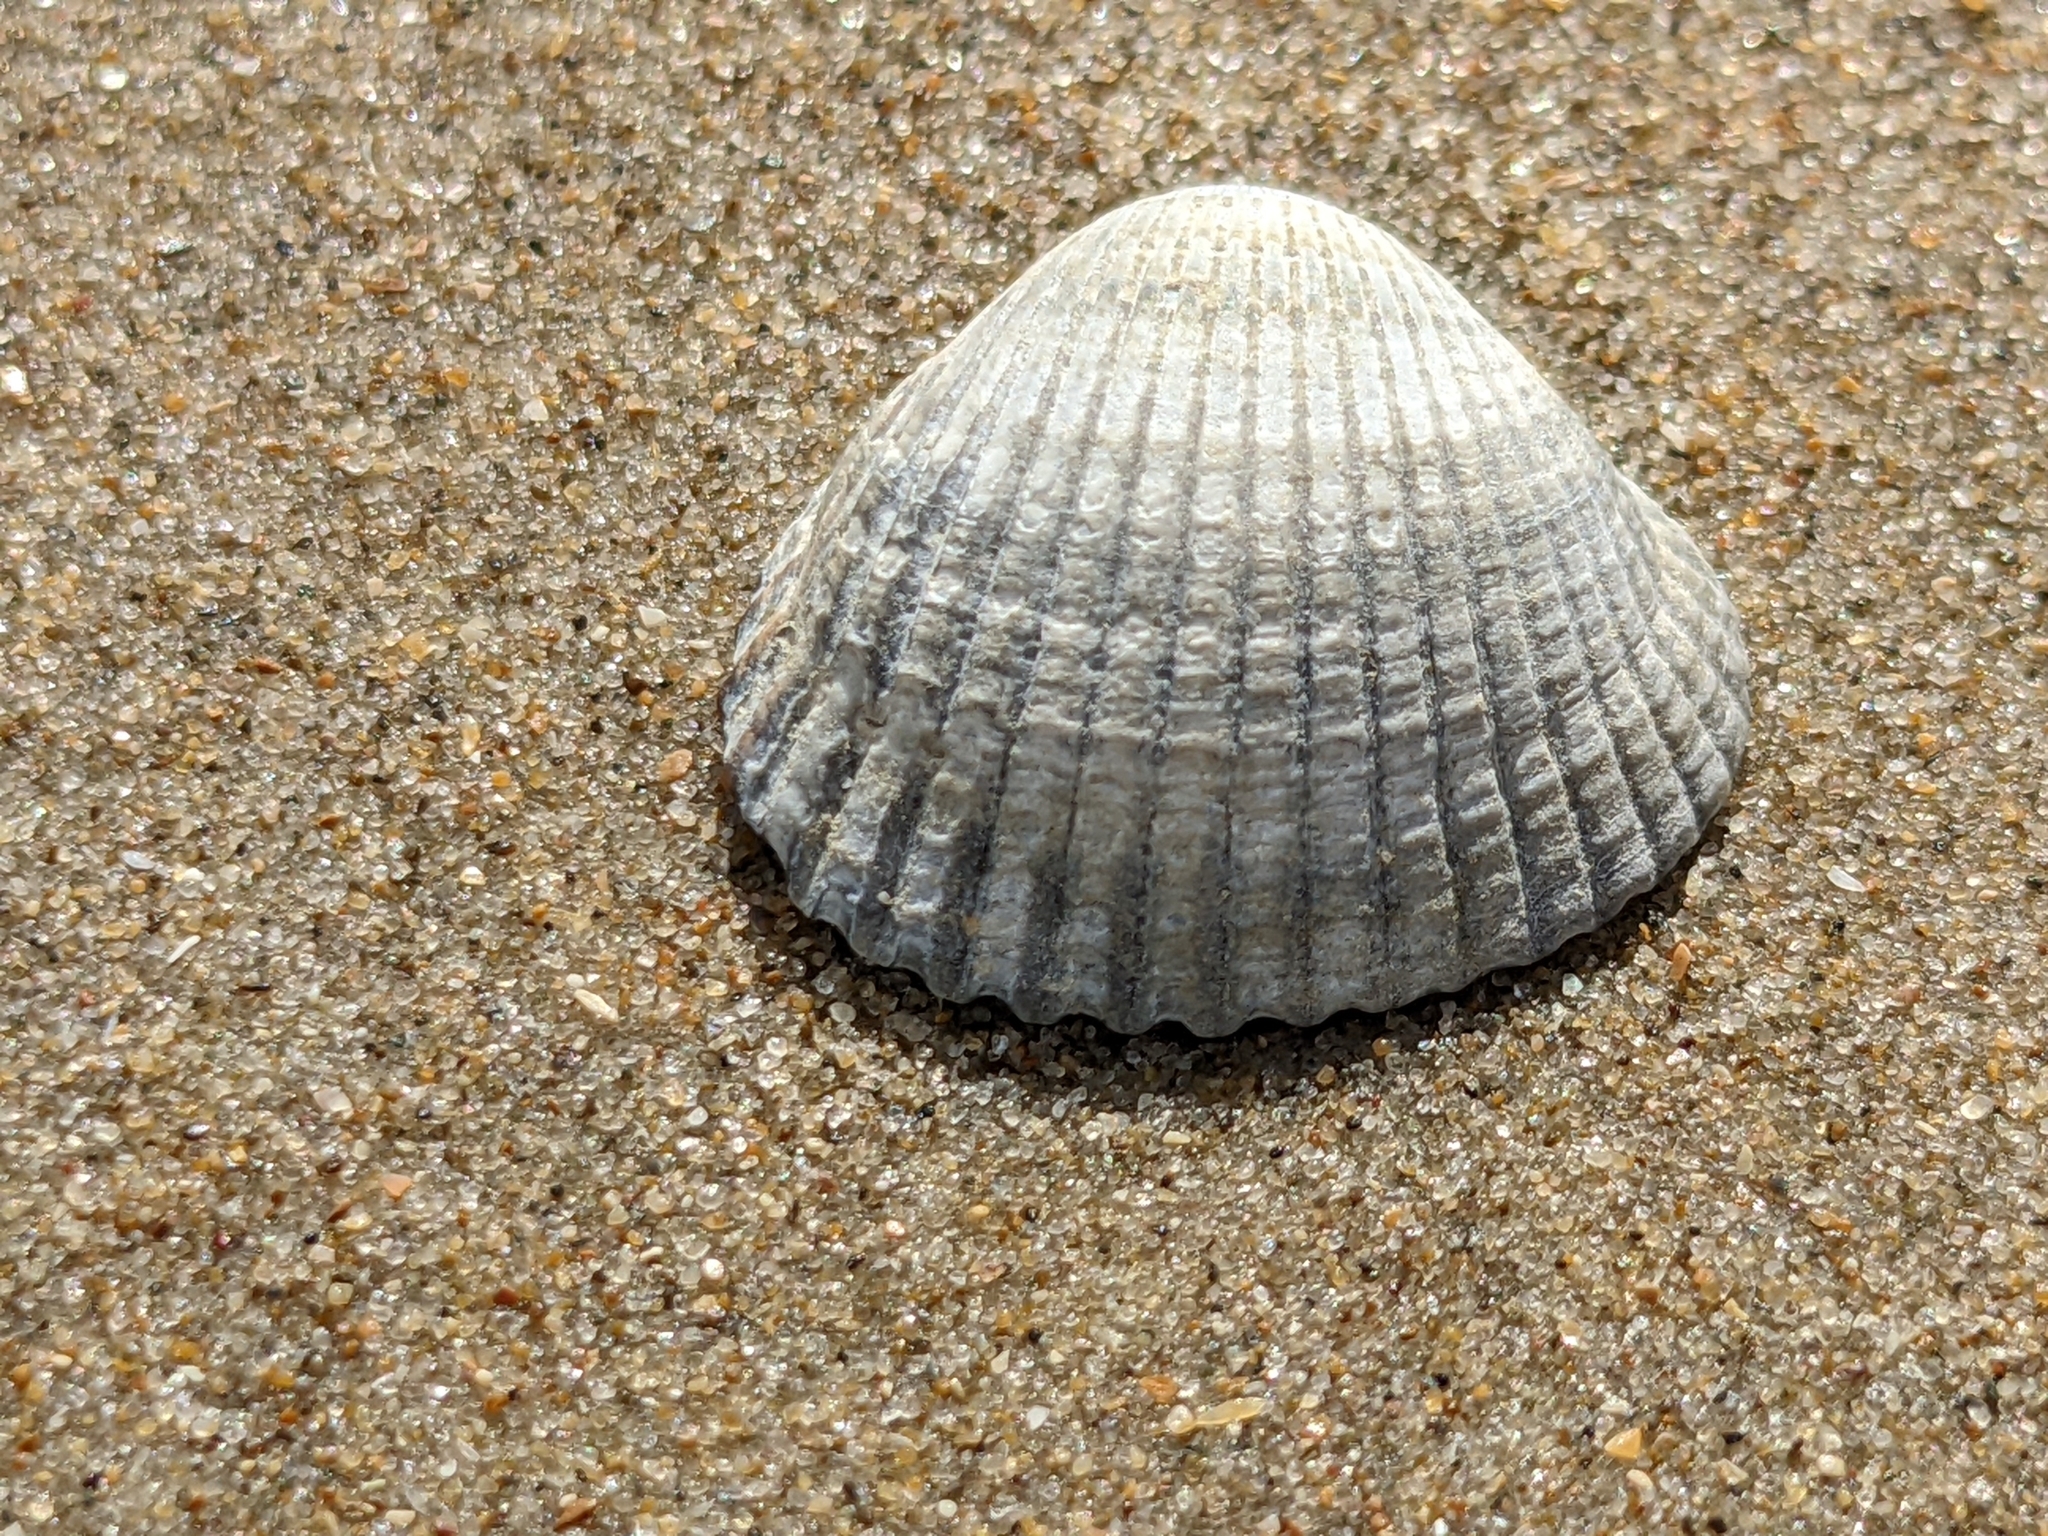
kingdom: Animalia
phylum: Mollusca
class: Bivalvia
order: Cardiida
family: Cardiidae
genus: Cerastoderma
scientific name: Cerastoderma edule
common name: Common cockle
